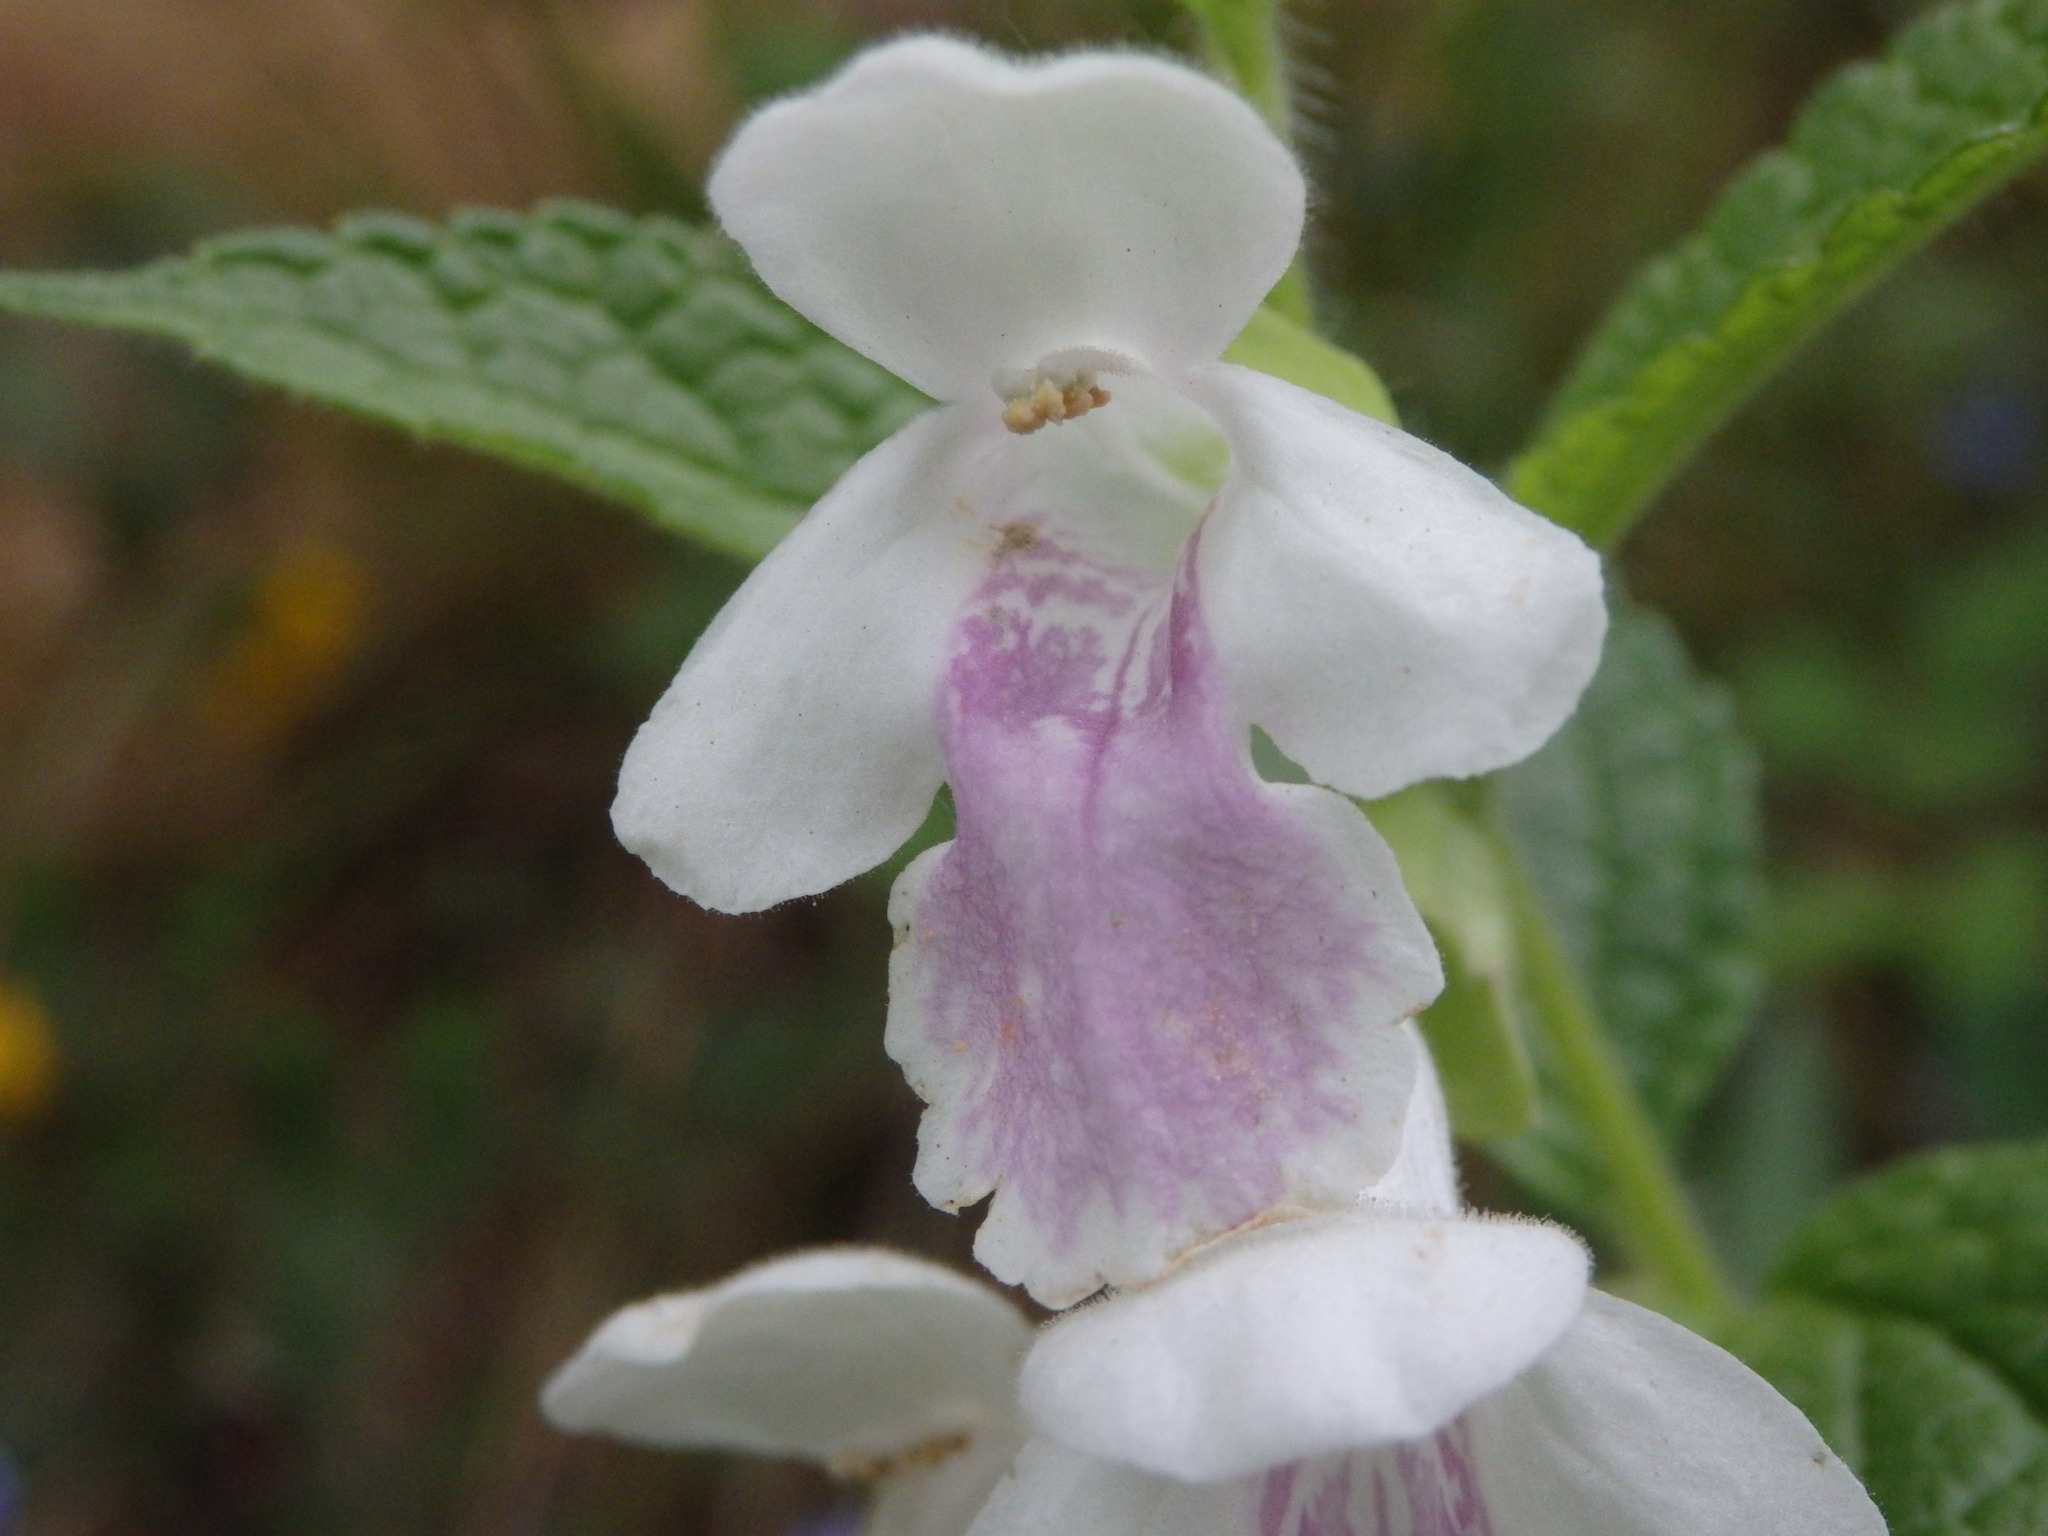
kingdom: Plantae
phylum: Tracheophyta
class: Magnoliopsida
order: Lamiales
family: Lamiaceae
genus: Melittis
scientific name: Melittis melissophyllum
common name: Bastard balm
